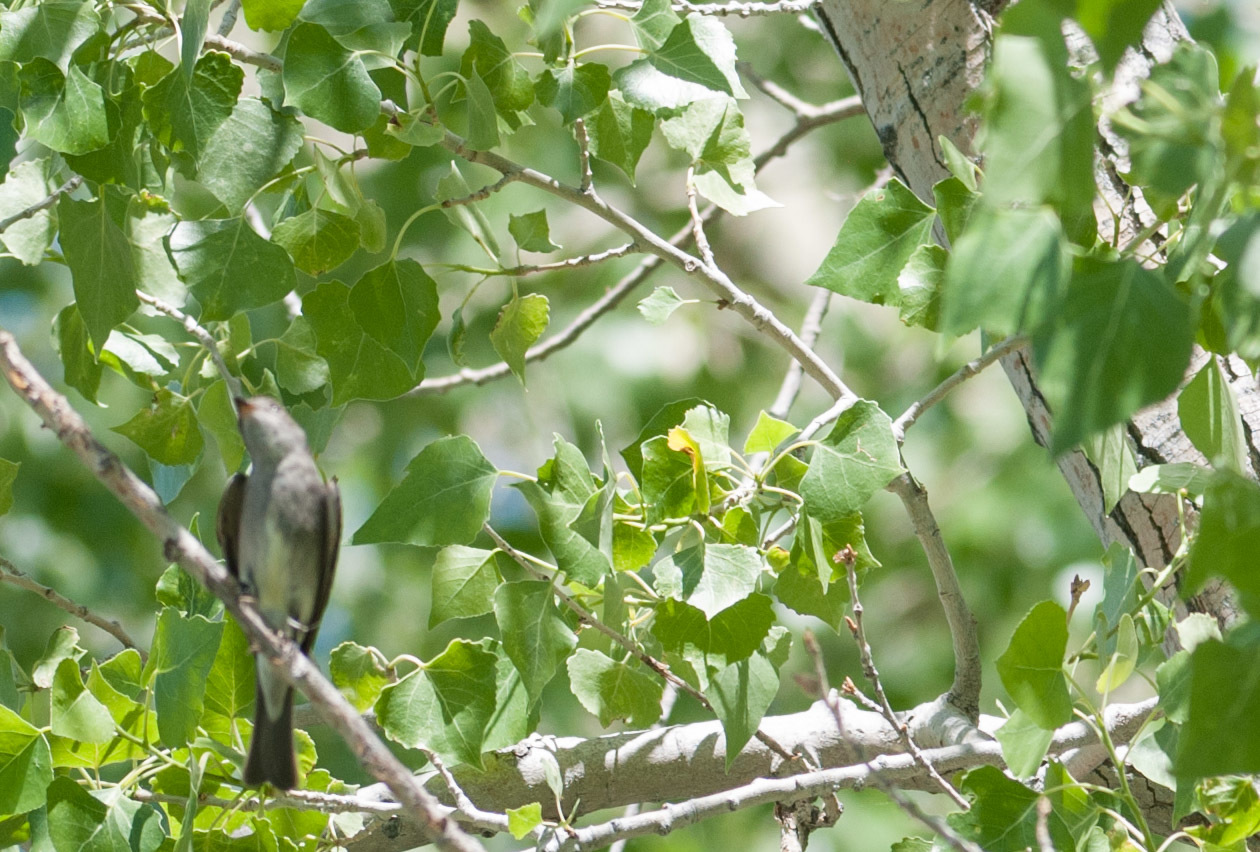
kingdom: Animalia
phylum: Chordata
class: Aves
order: Passeriformes
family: Tyrannidae
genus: Contopus
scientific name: Contopus sordidulus
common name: Western wood-pewee
